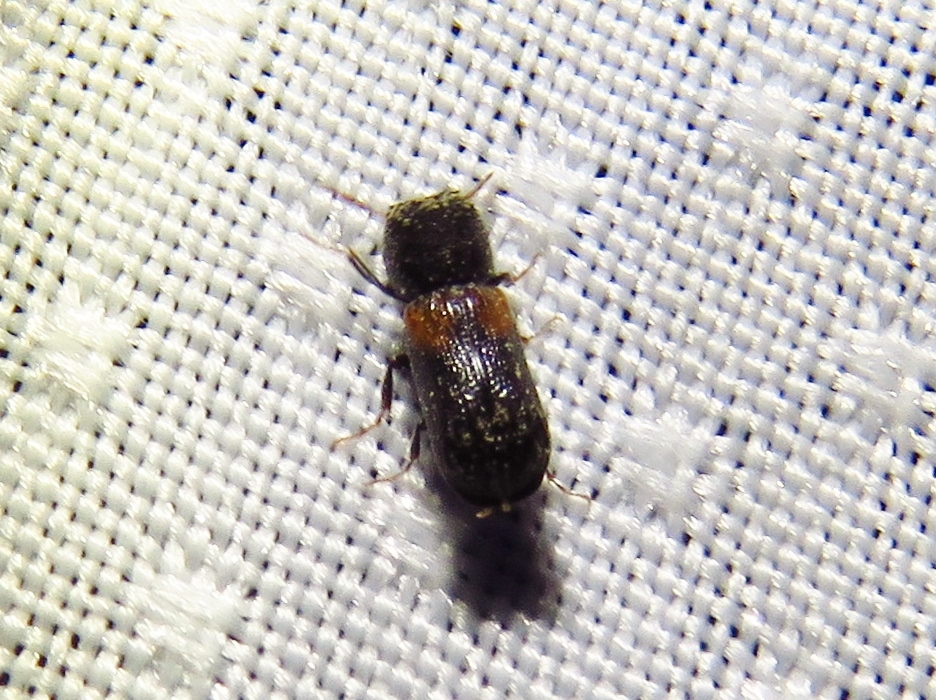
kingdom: Animalia
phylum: Arthropoda
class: Insecta
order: Coleoptera
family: Bostrichidae
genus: Xylobiops
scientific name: Xylobiops basilaris
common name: Red-shouldered bostrichid
